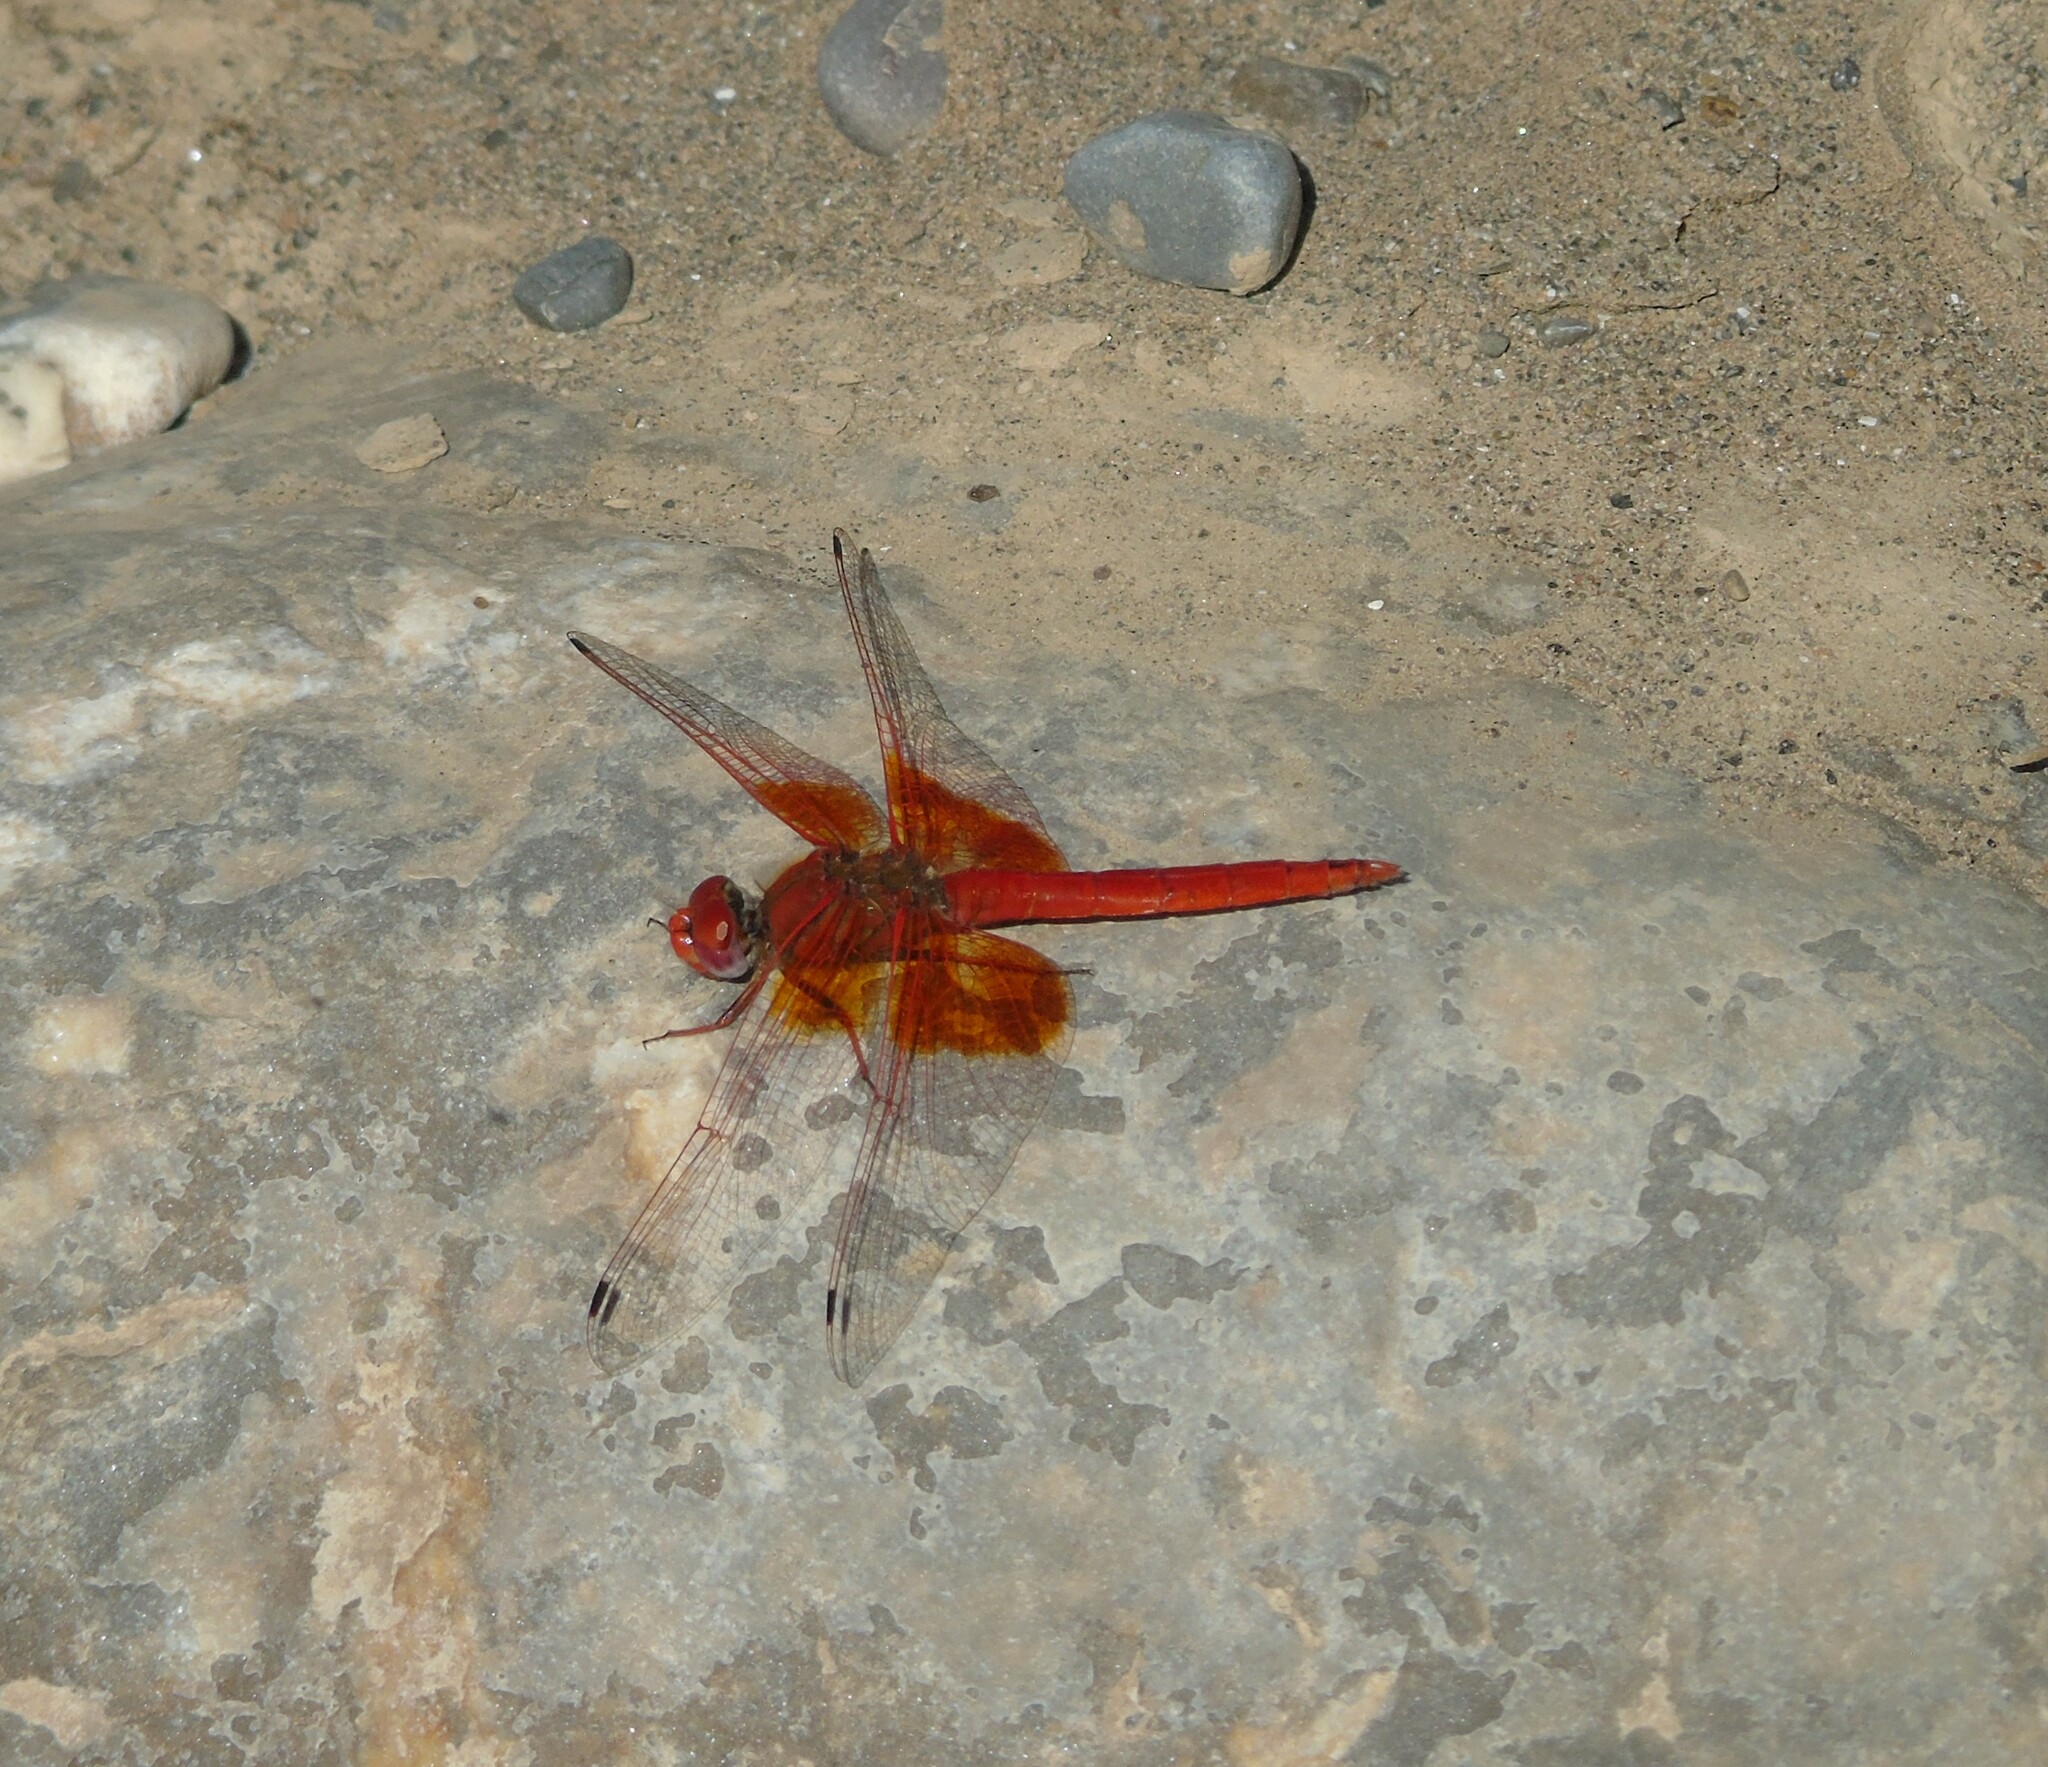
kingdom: Animalia
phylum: Arthropoda
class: Insecta
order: Odonata
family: Libellulidae
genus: Trithemis
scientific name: Trithemis kirbyi
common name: Kirby's dropwing
